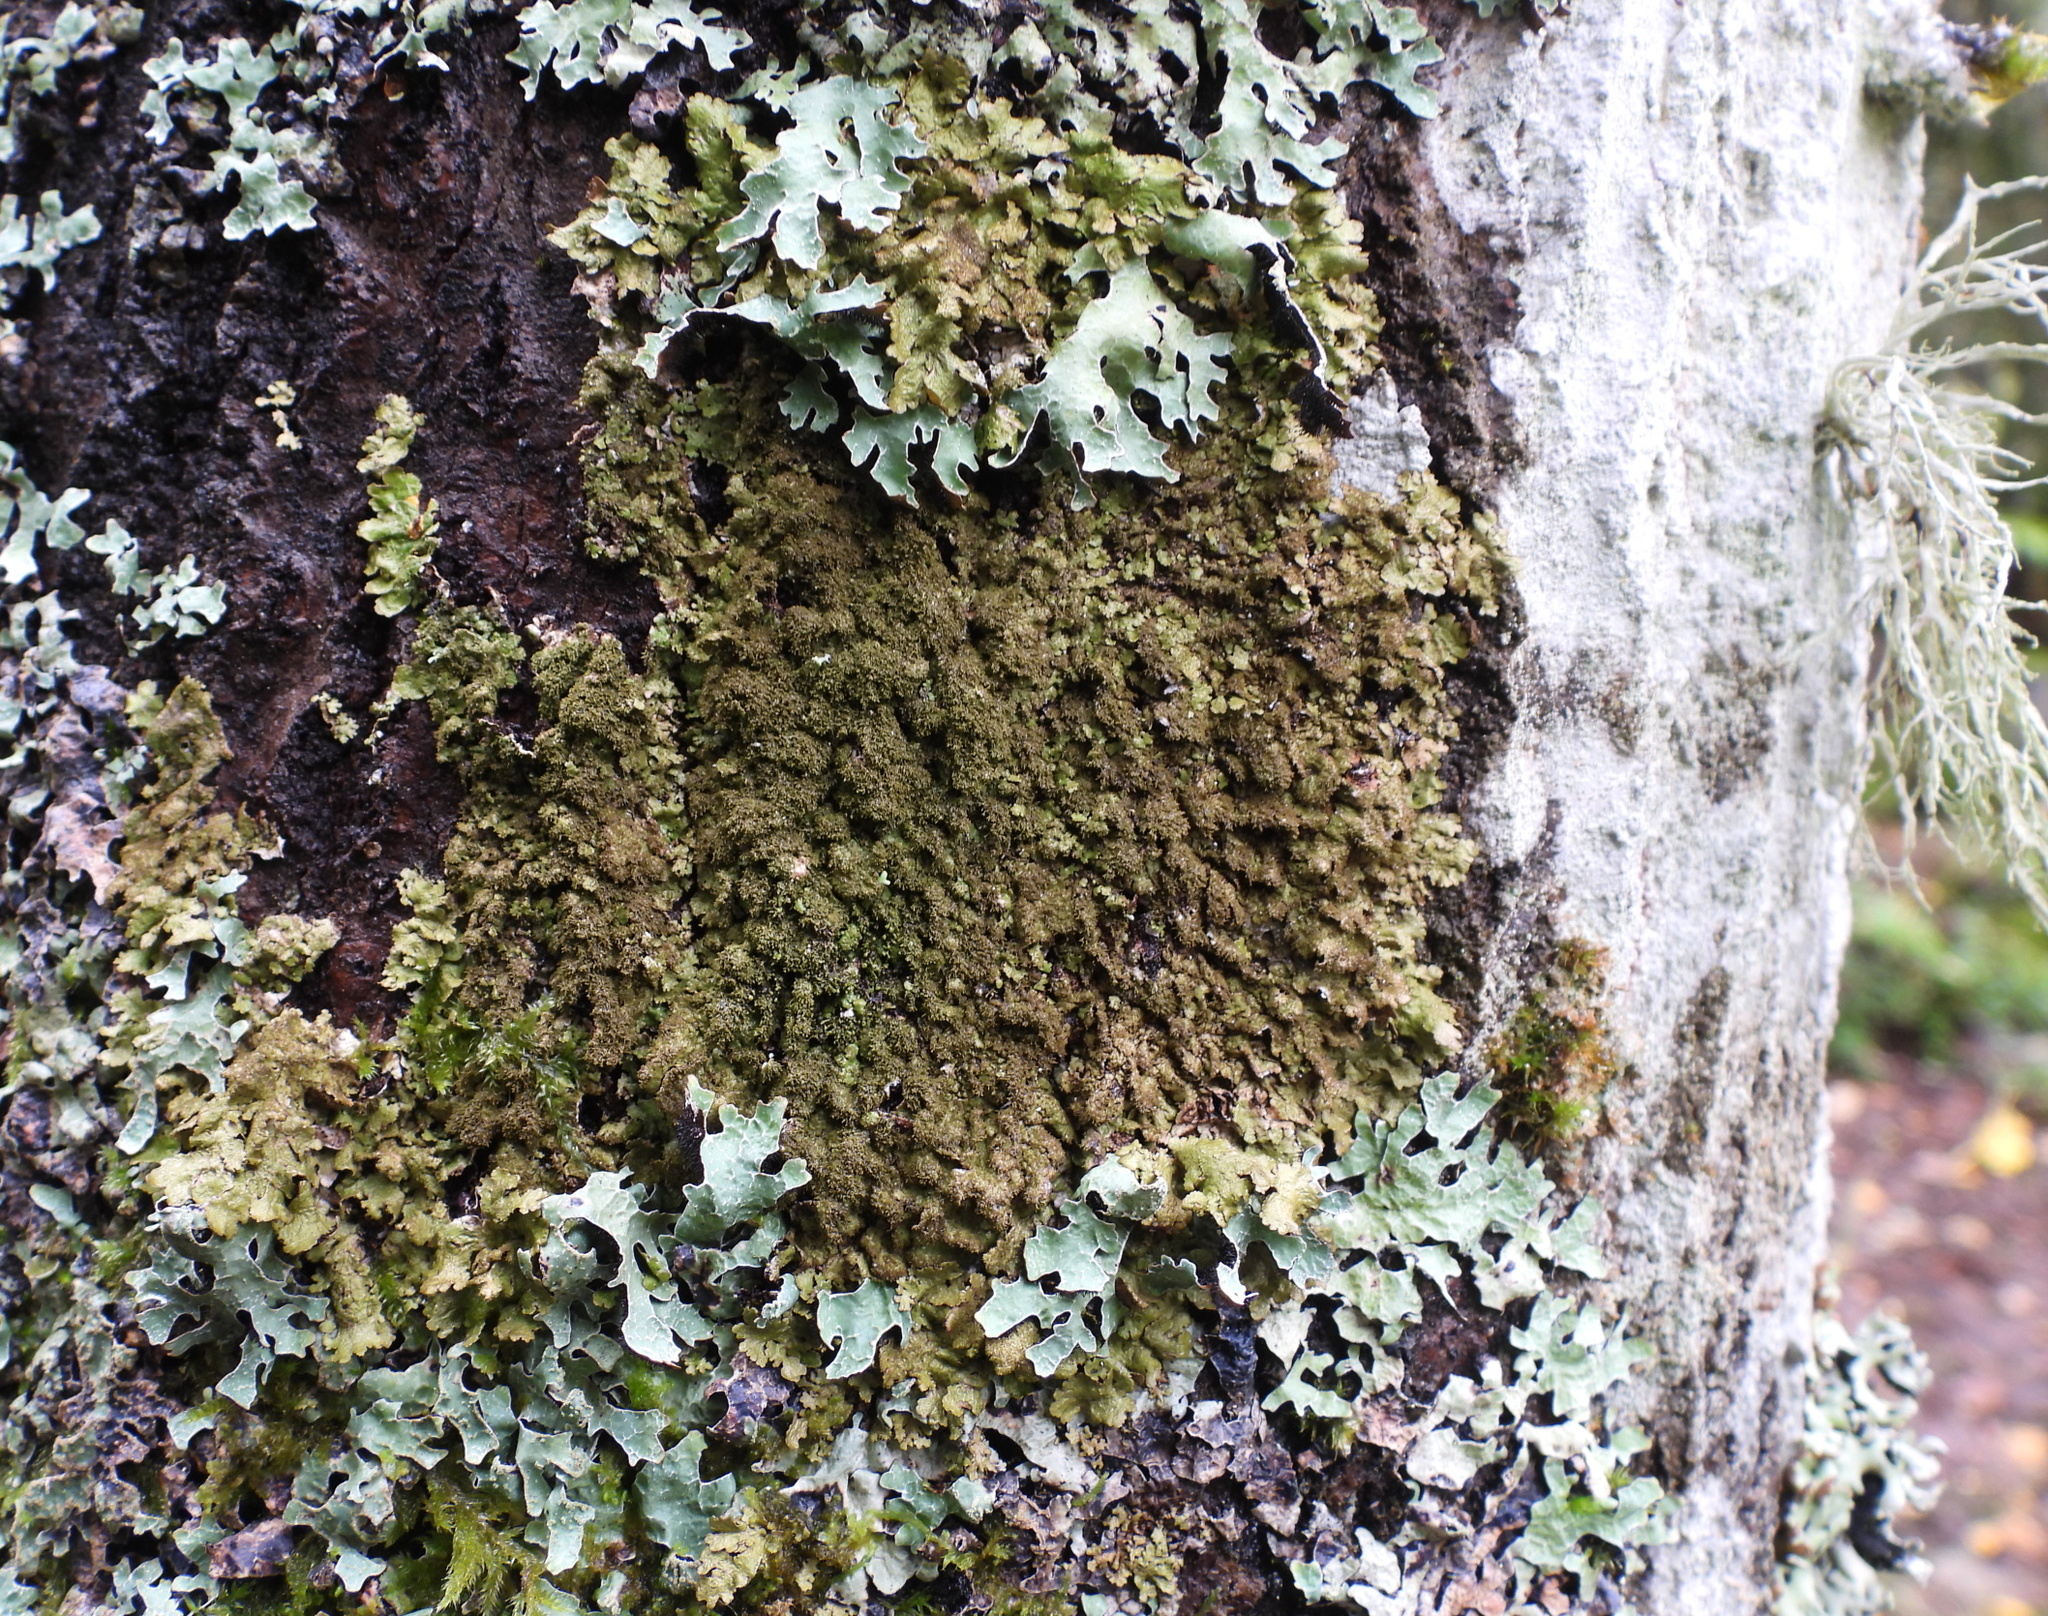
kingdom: Fungi
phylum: Ascomycota
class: Lecanoromycetes
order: Lecanorales
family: Parmeliaceae
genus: Melanelixia
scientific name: Melanelixia glabratula
